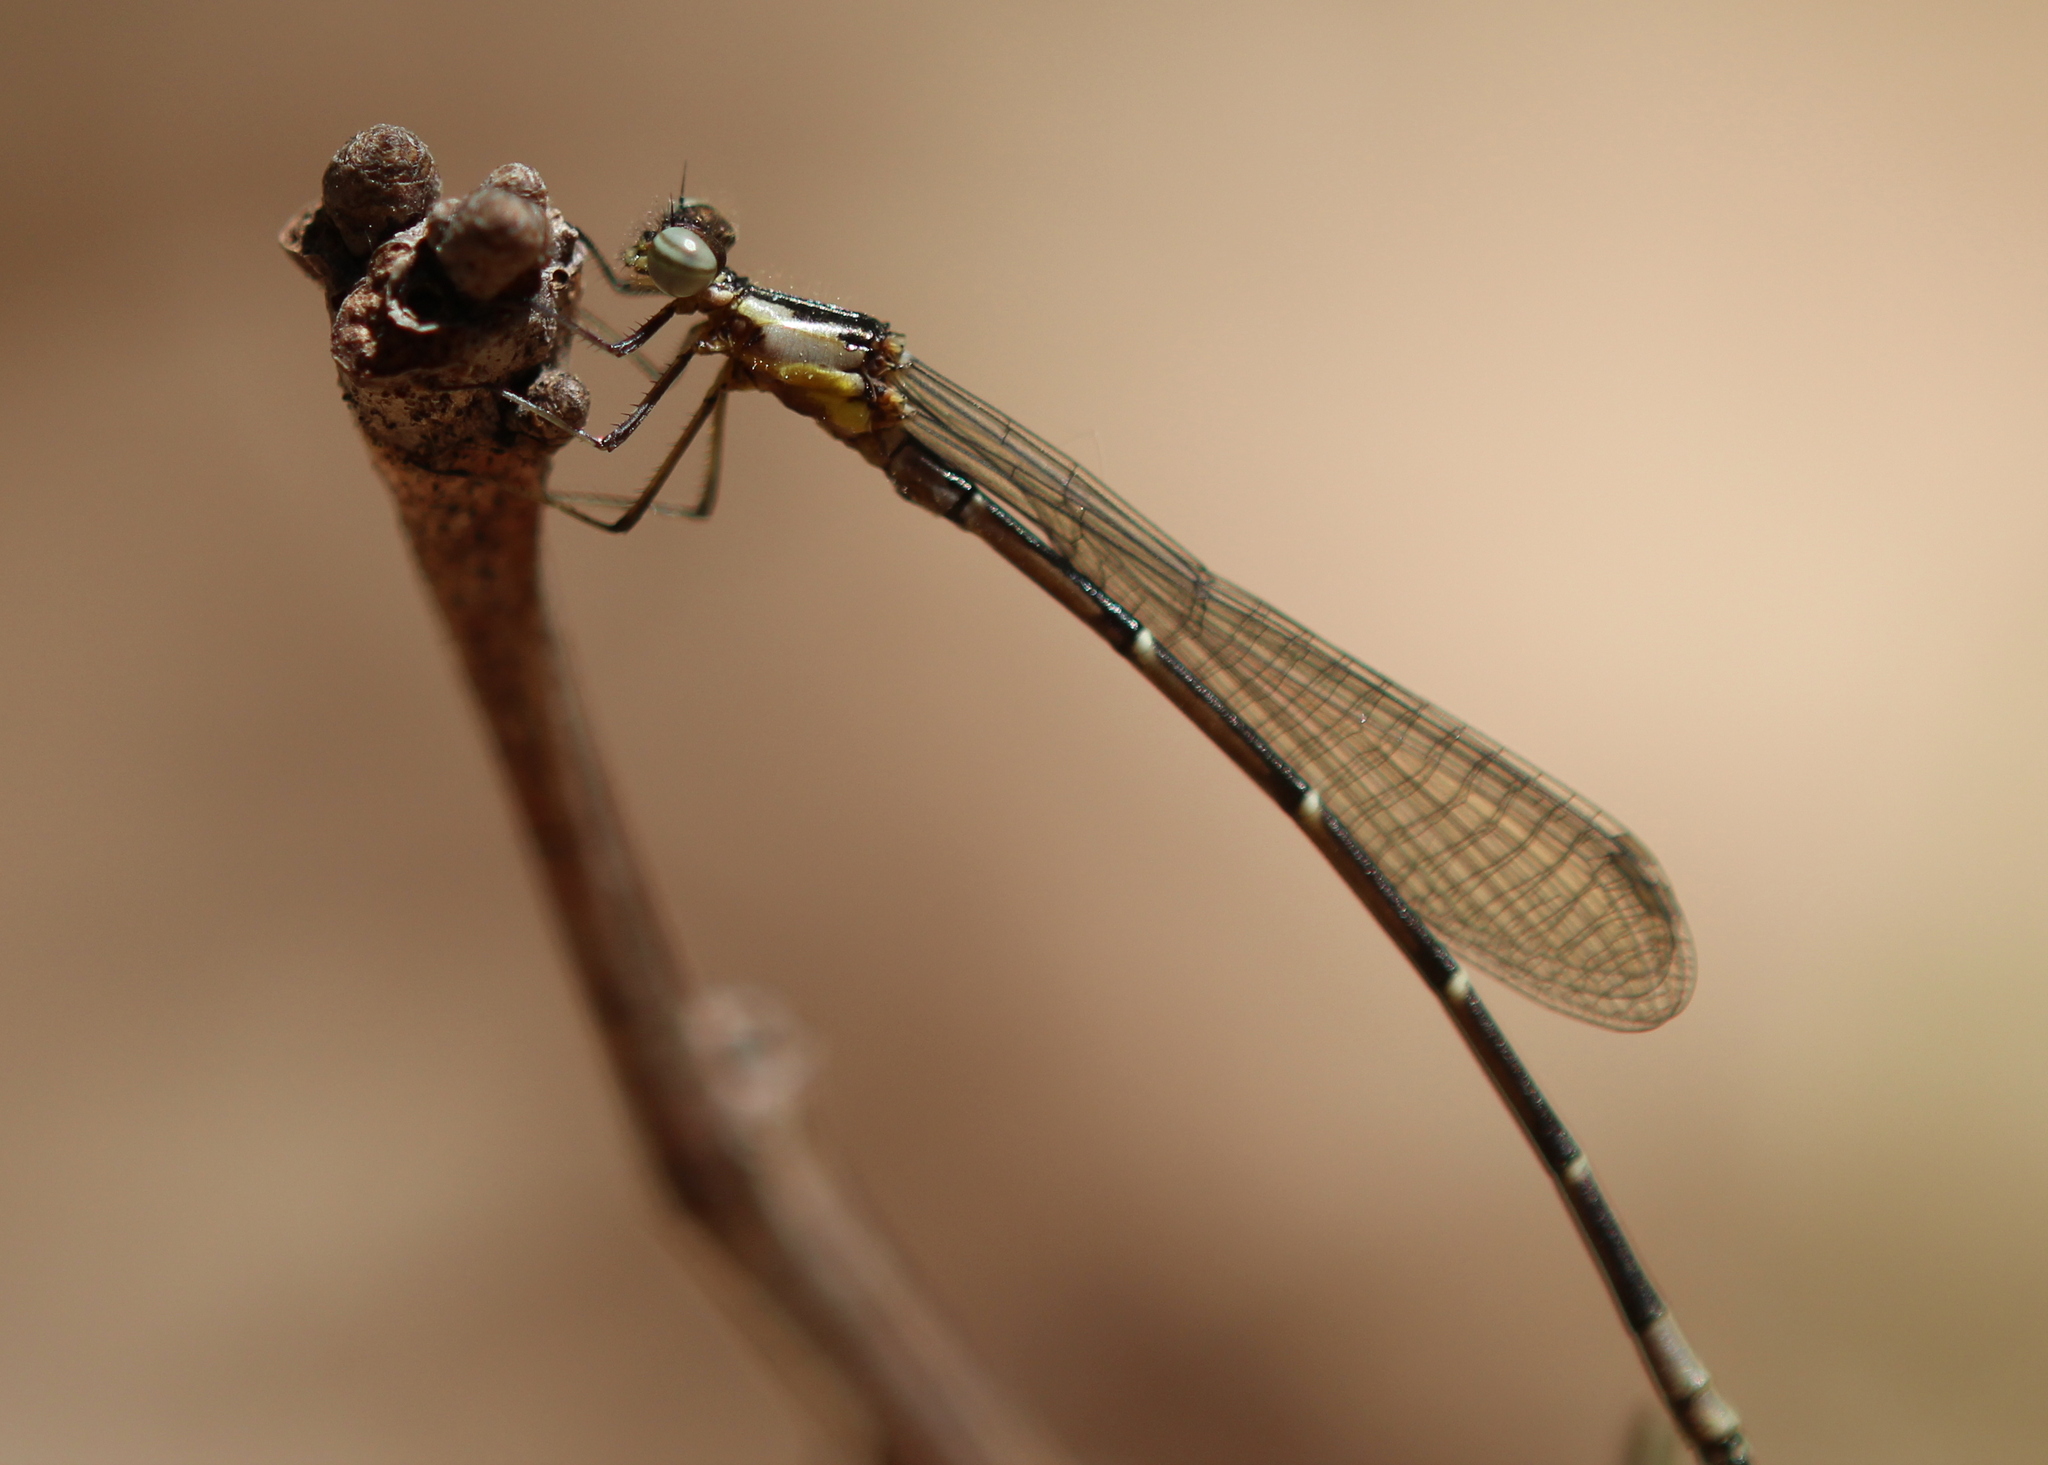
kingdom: Animalia
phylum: Arthropoda
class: Insecta
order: Odonata
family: Coenagrionidae
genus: Chromagrion
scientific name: Chromagrion conditum
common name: Aurora damsel
